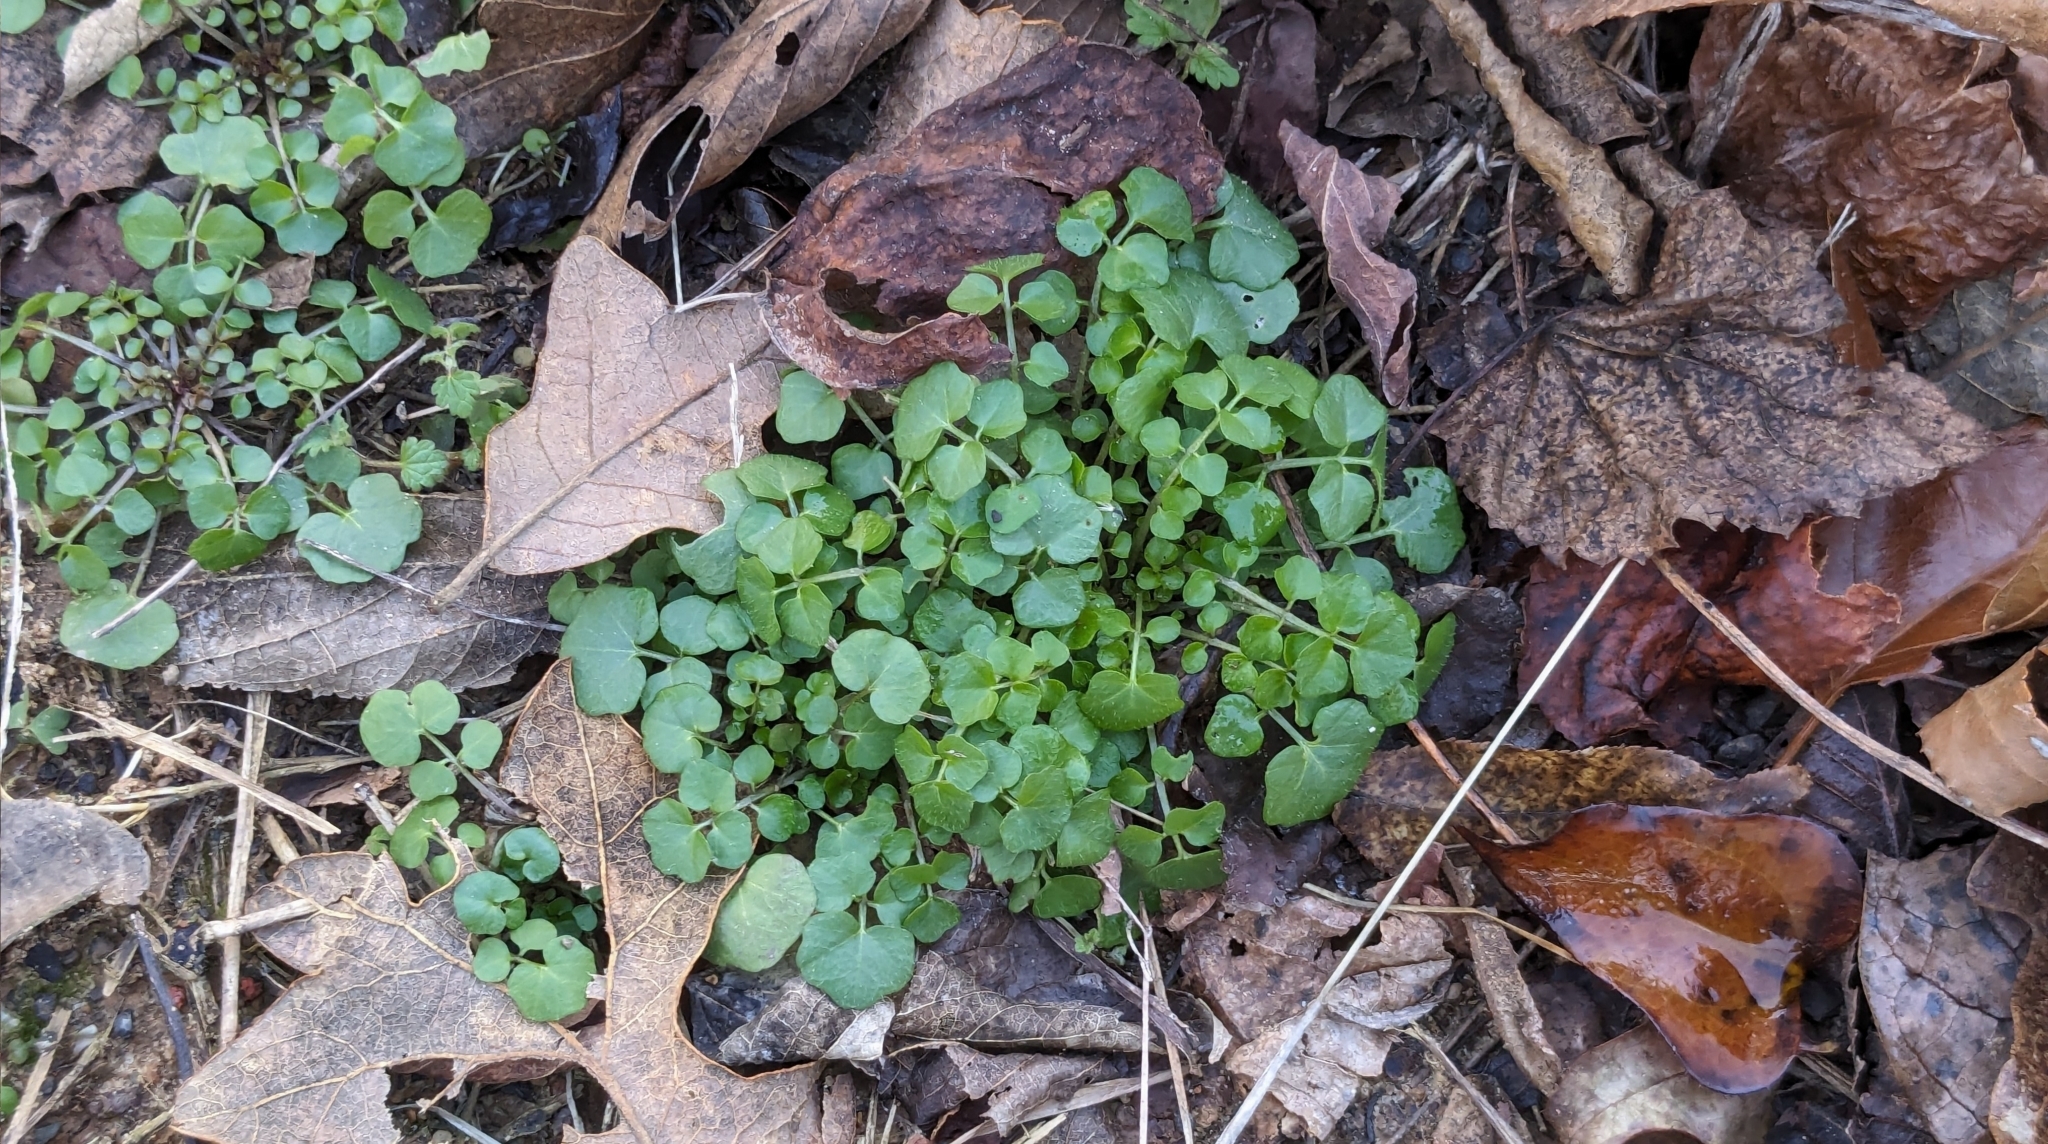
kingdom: Plantae
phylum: Tracheophyta
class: Magnoliopsida
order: Brassicales
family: Brassicaceae
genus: Cardamine
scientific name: Cardamine hirsuta
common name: Hairy bittercress
